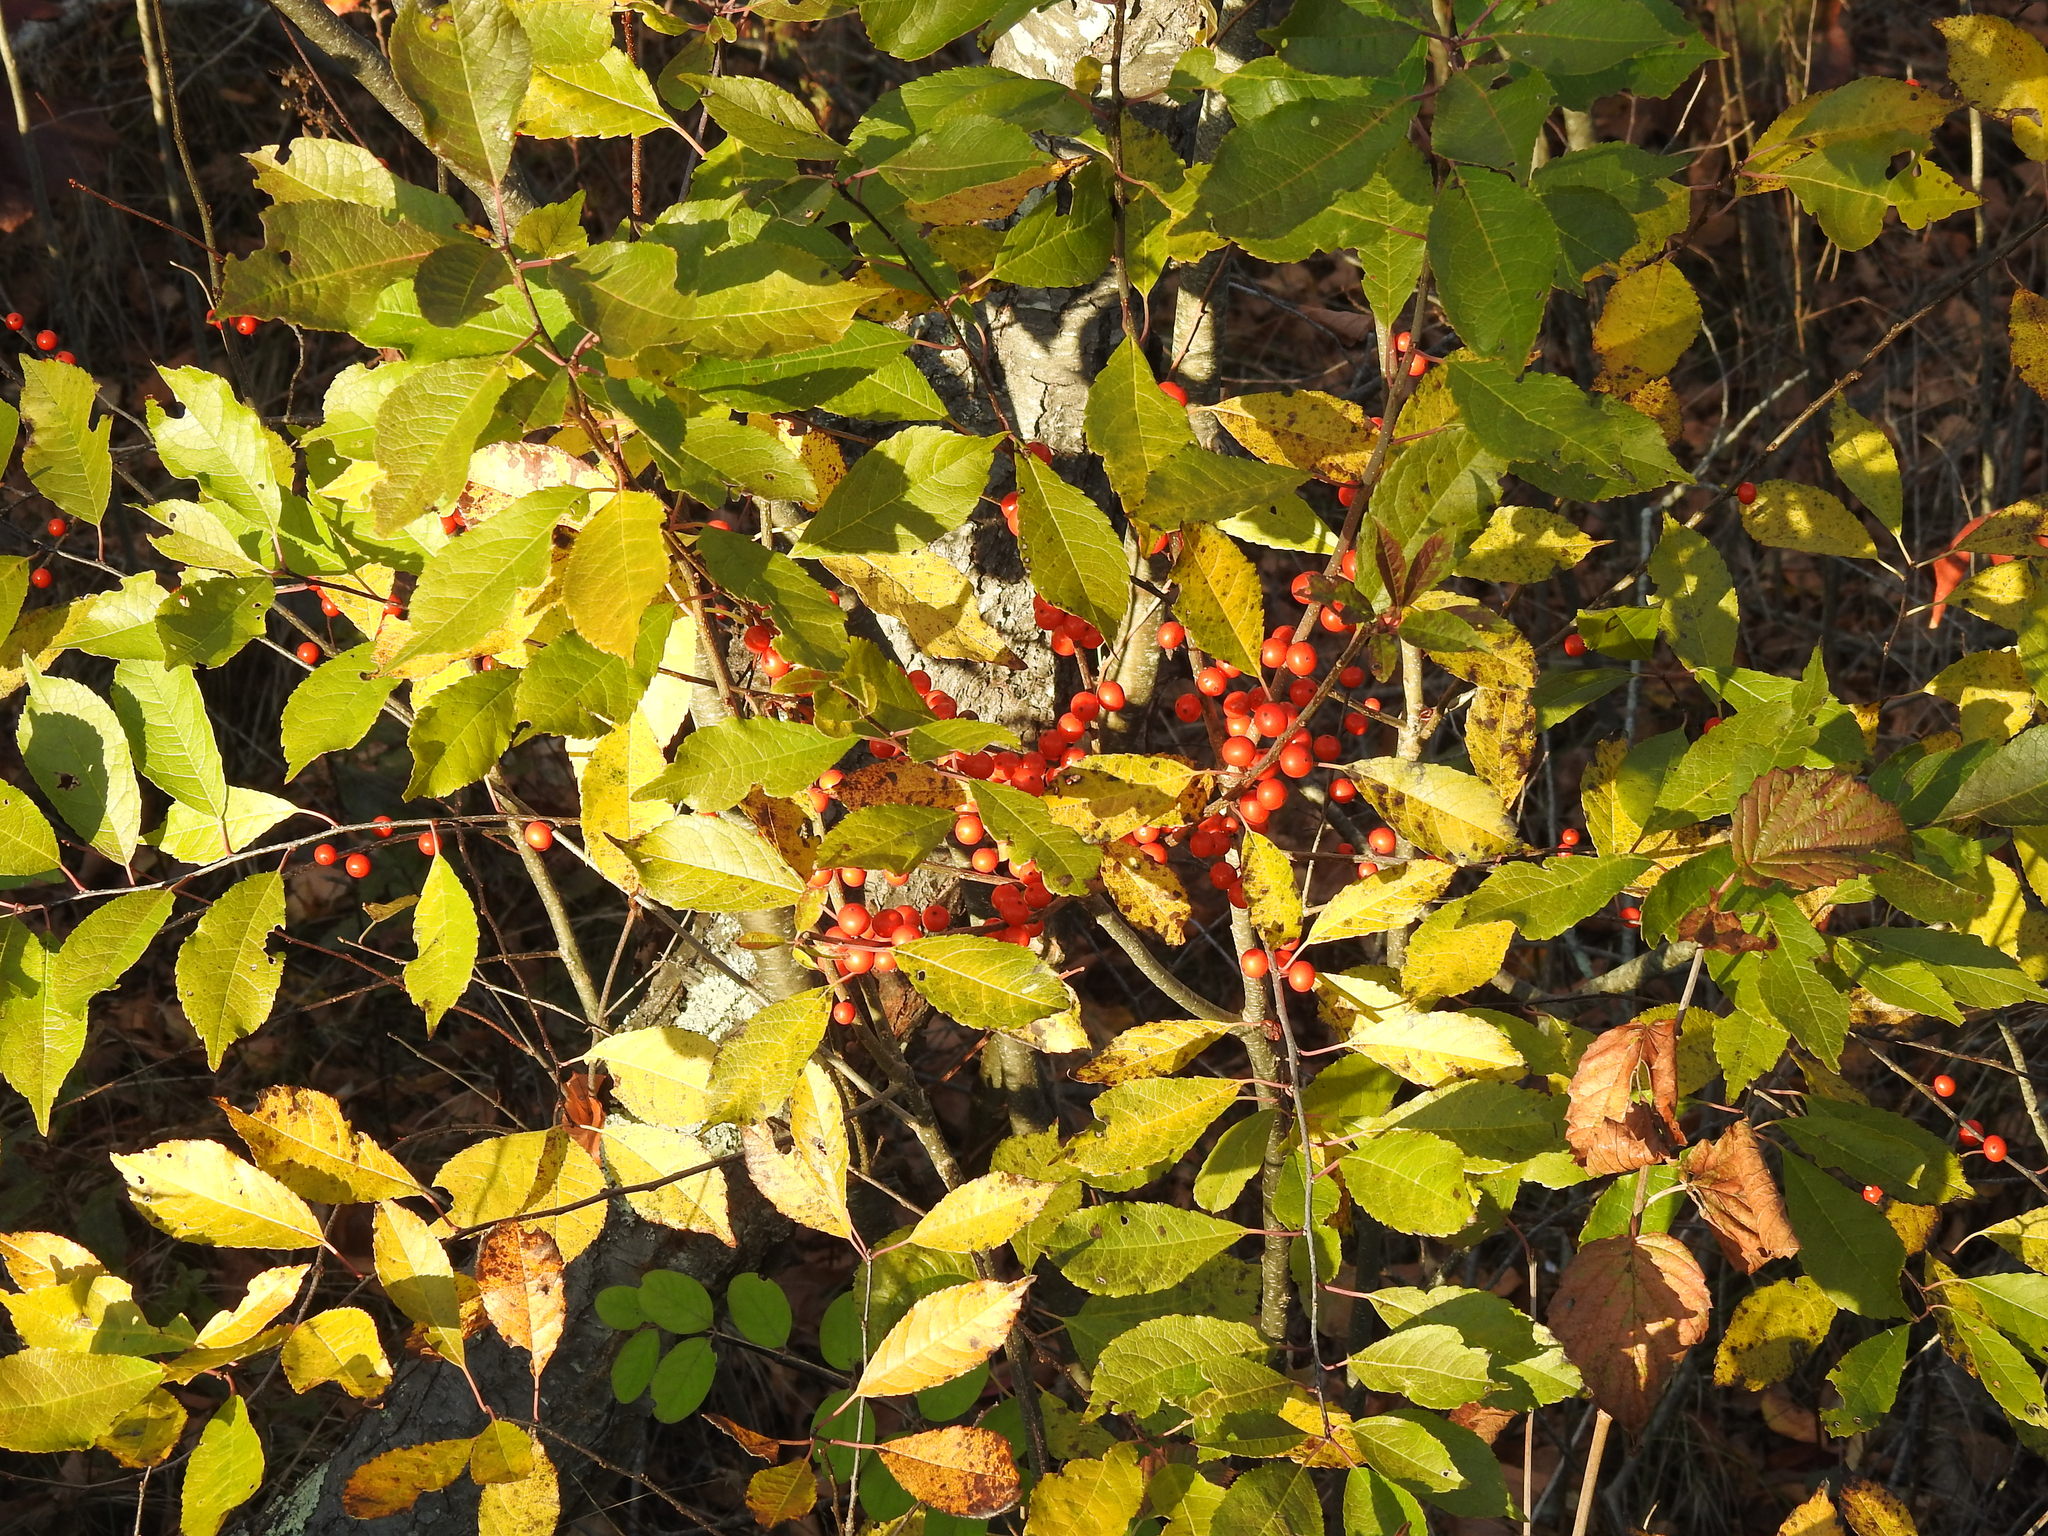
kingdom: Plantae
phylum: Tracheophyta
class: Magnoliopsida
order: Aquifoliales
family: Aquifoliaceae
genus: Ilex
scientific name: Ilex verticillata
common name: Virginia winterberry
